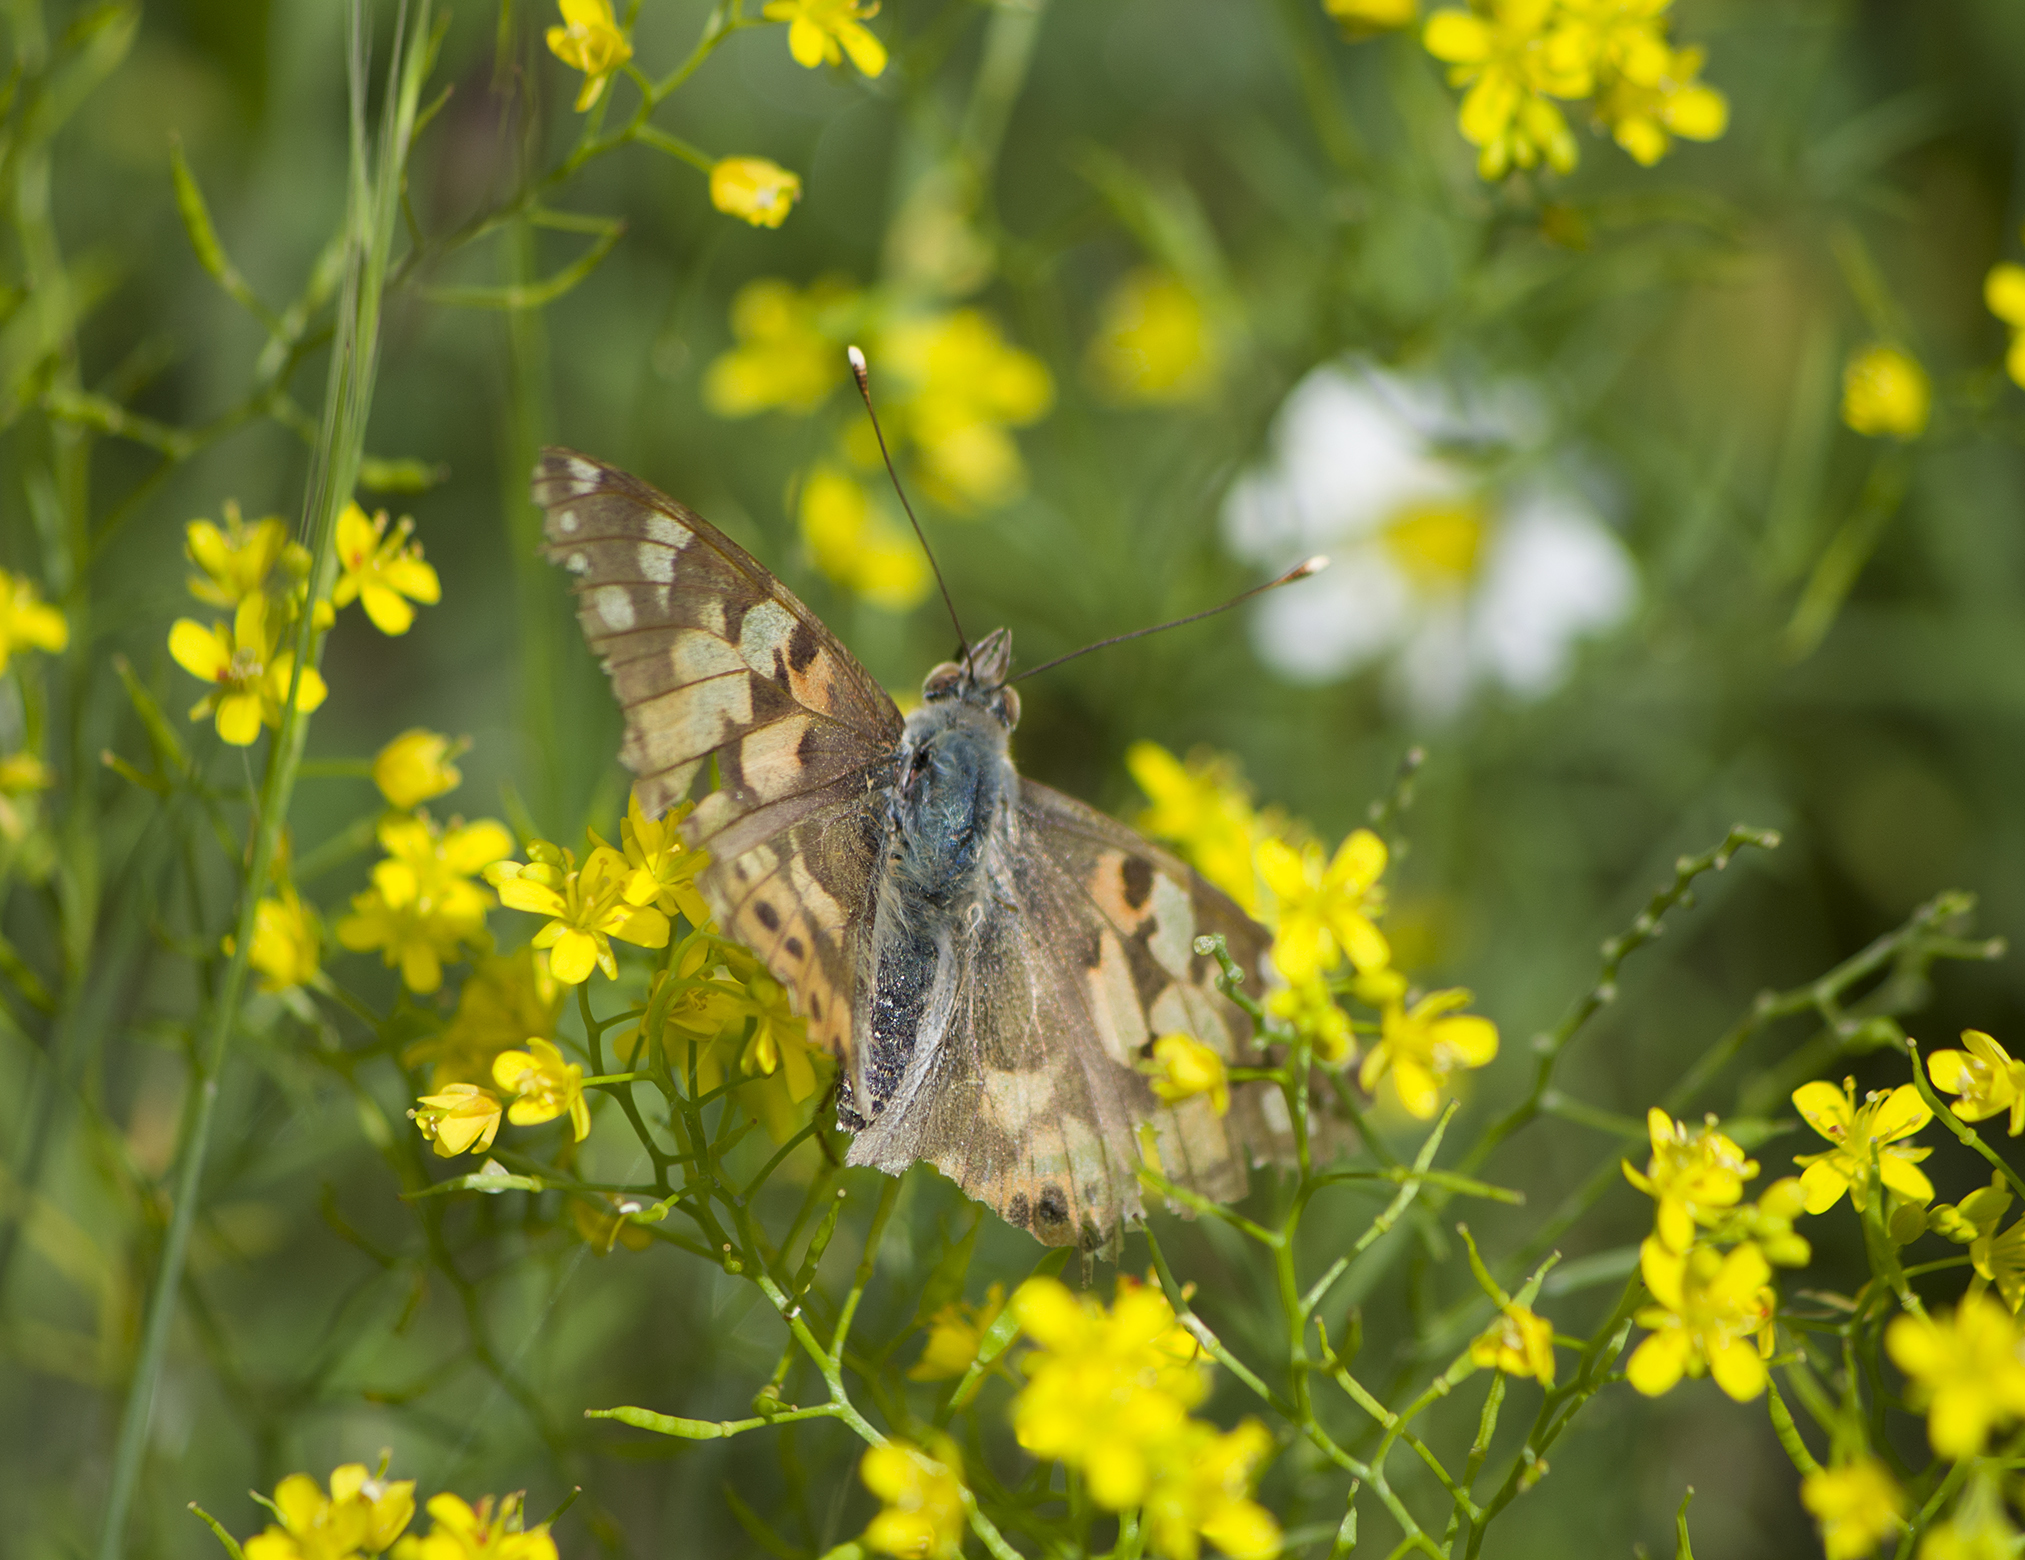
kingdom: Animalia
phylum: Arthropoda
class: Insecta
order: Lepidoptera
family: Nymphalidae
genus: Vanessa
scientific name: Vanessa cardui
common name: Painted lady
